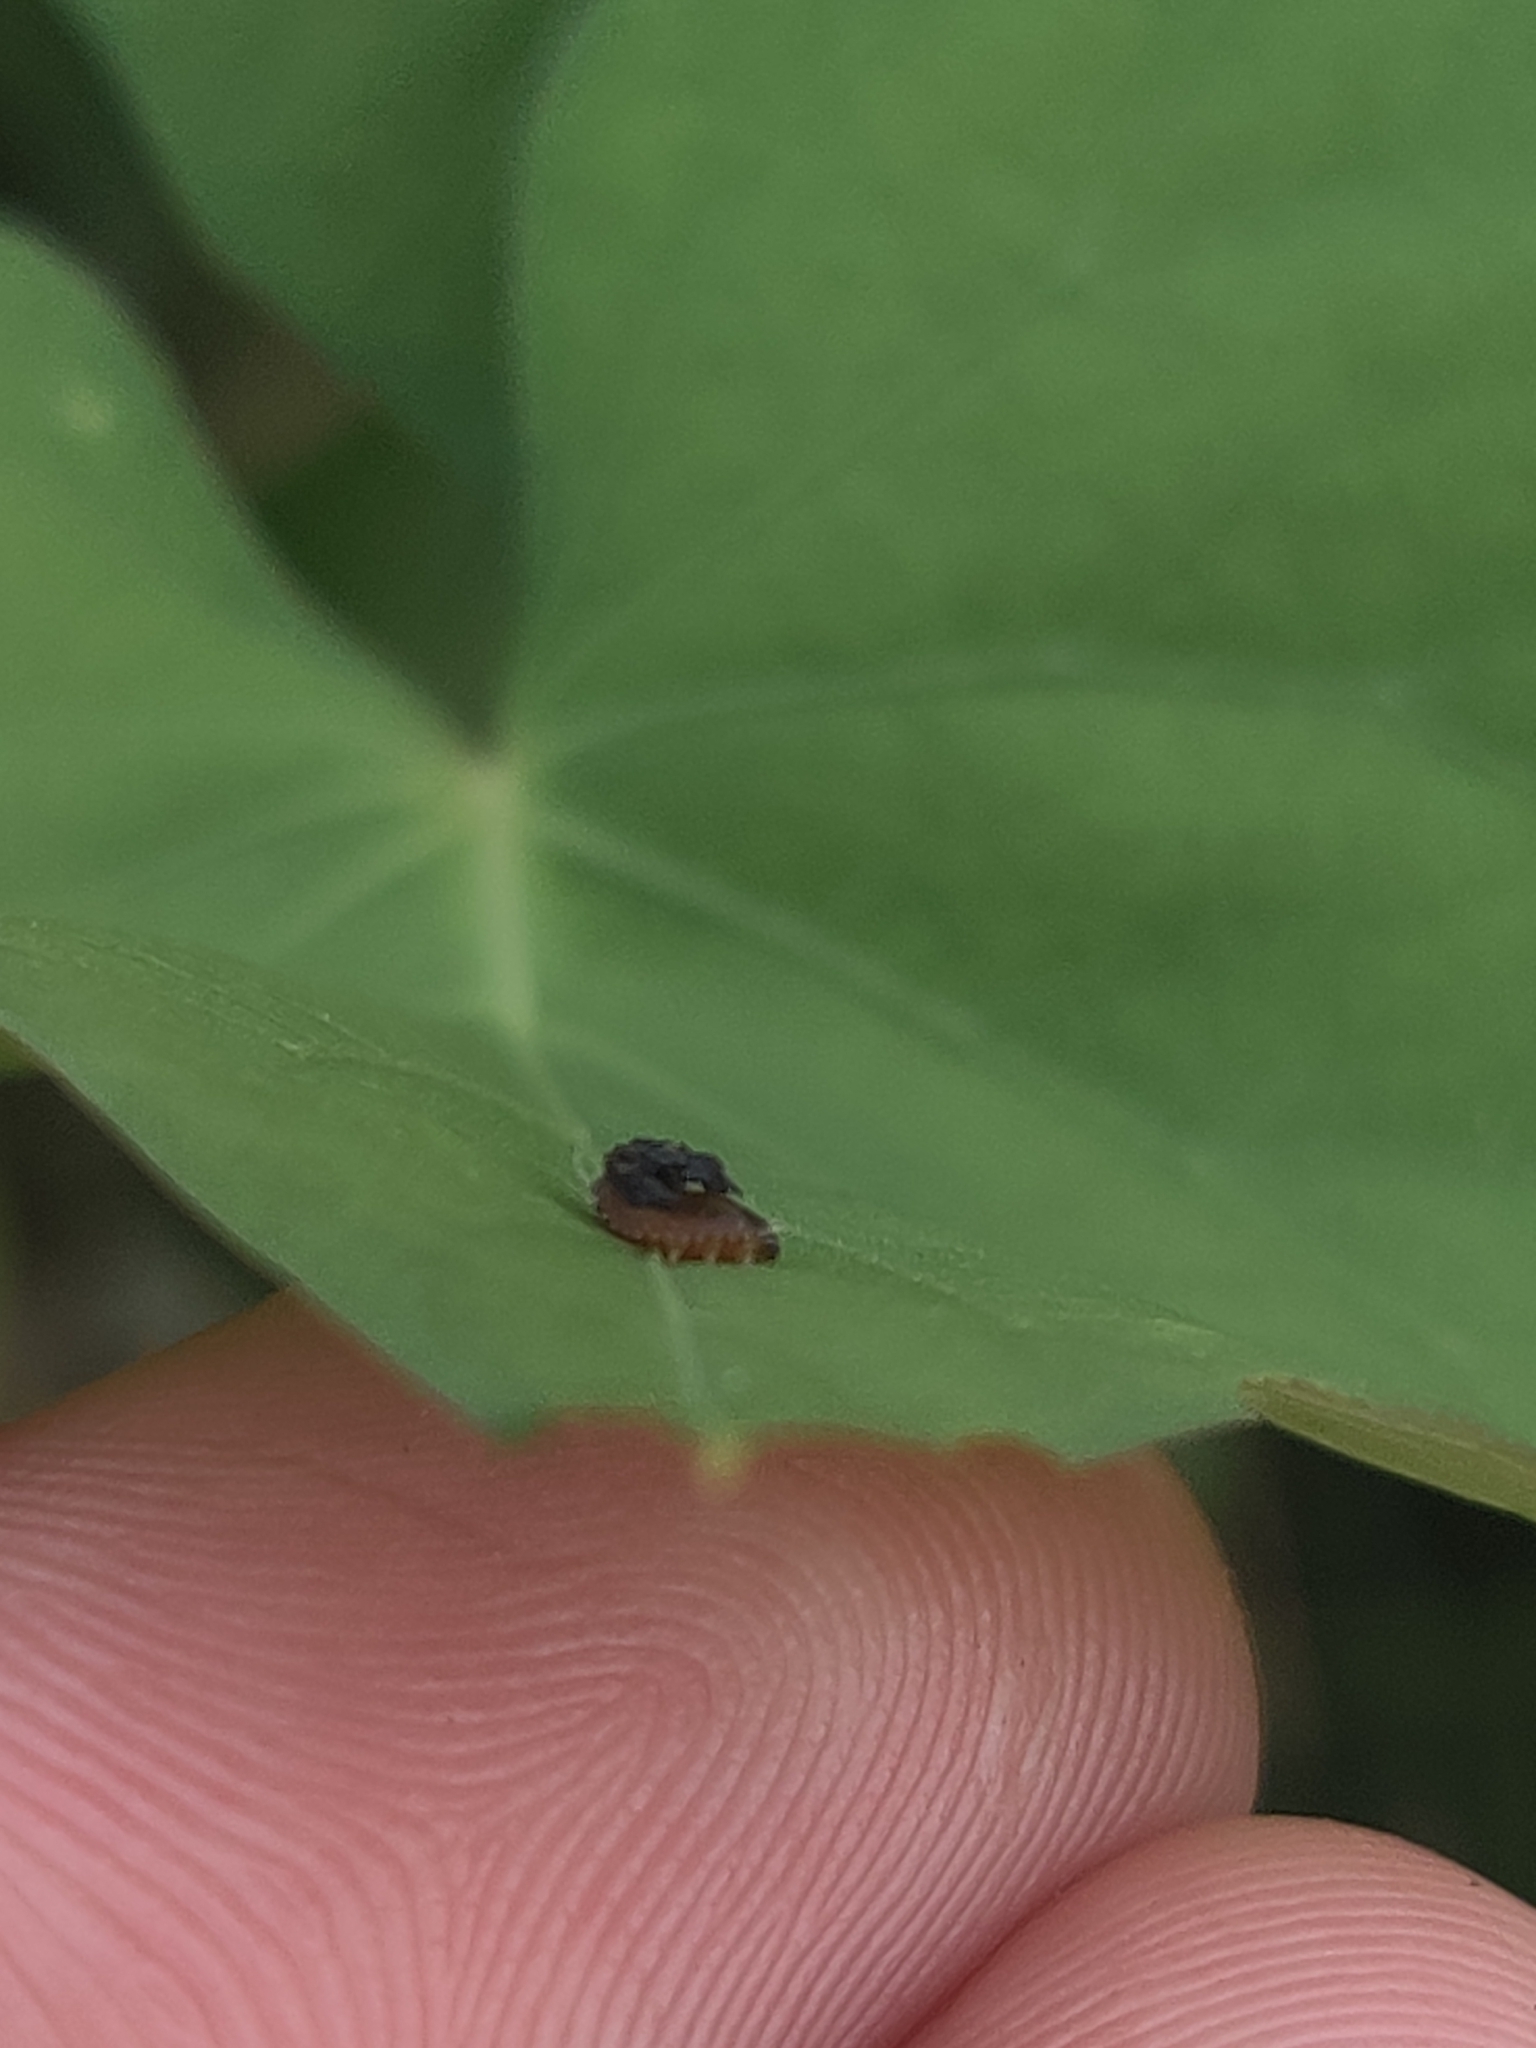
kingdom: Animalia
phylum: Arthropoda
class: Insecta
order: Coleoptera
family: Chrysomelidae
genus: Charidotella
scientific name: Charidotella sexpunctata
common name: Golden tortoise beetle
